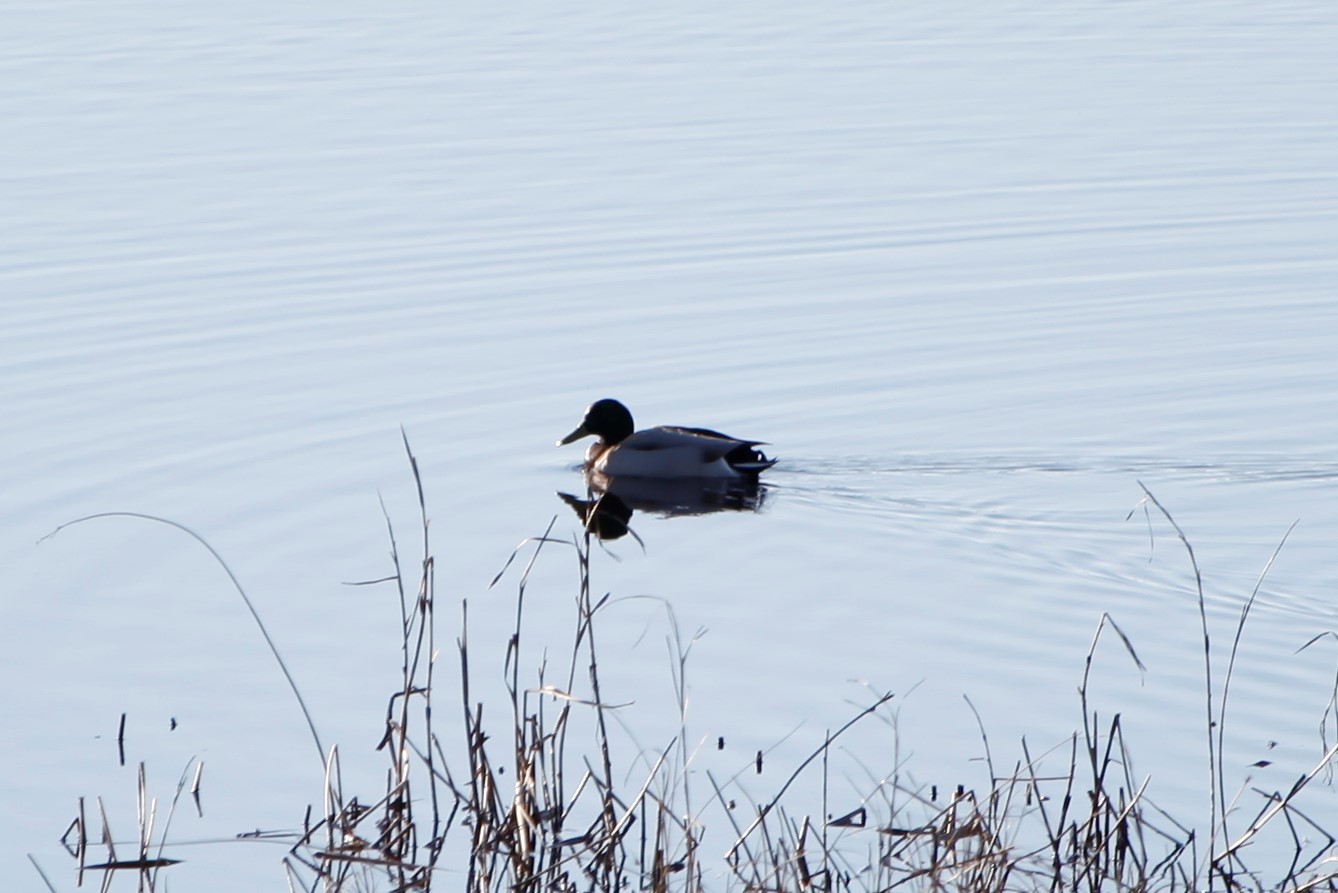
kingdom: Animalia
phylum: Chordata
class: Aves
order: Anseriformes
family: Anatidae
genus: Anas
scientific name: Anas platyrhynchos
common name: Mallard
